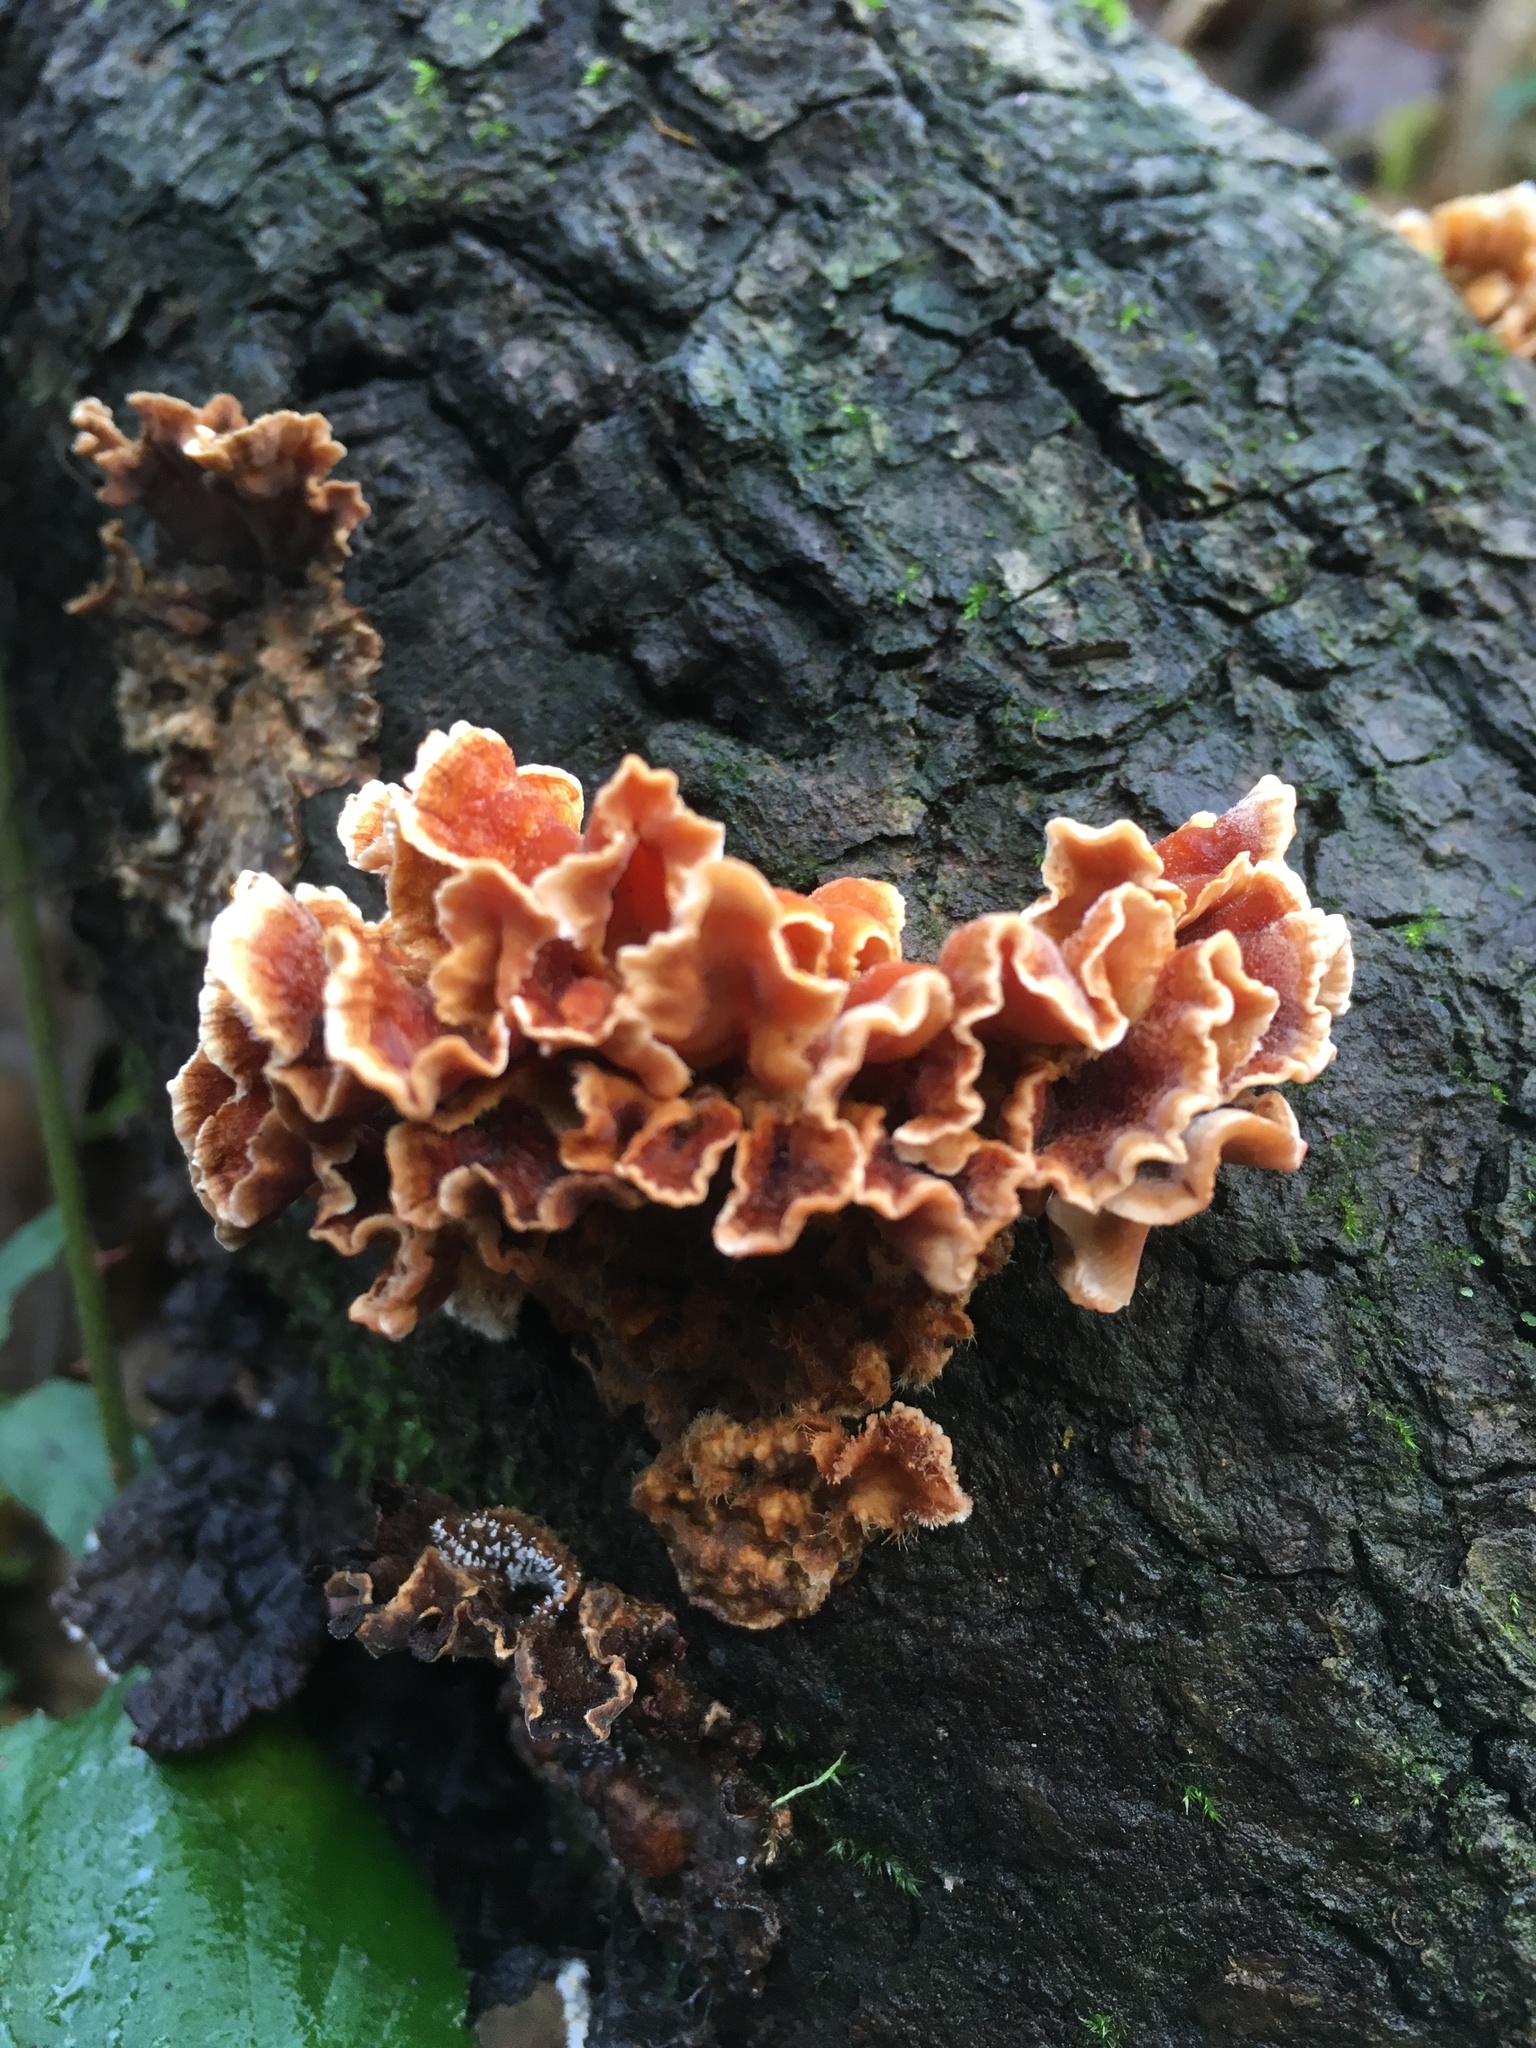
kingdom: Fungi
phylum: Basidiomycota
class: Agaricomycetes
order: Russulales
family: Stereaceae
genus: Stereum
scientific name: Stereum hirsutum
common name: Hairy curtain crust
